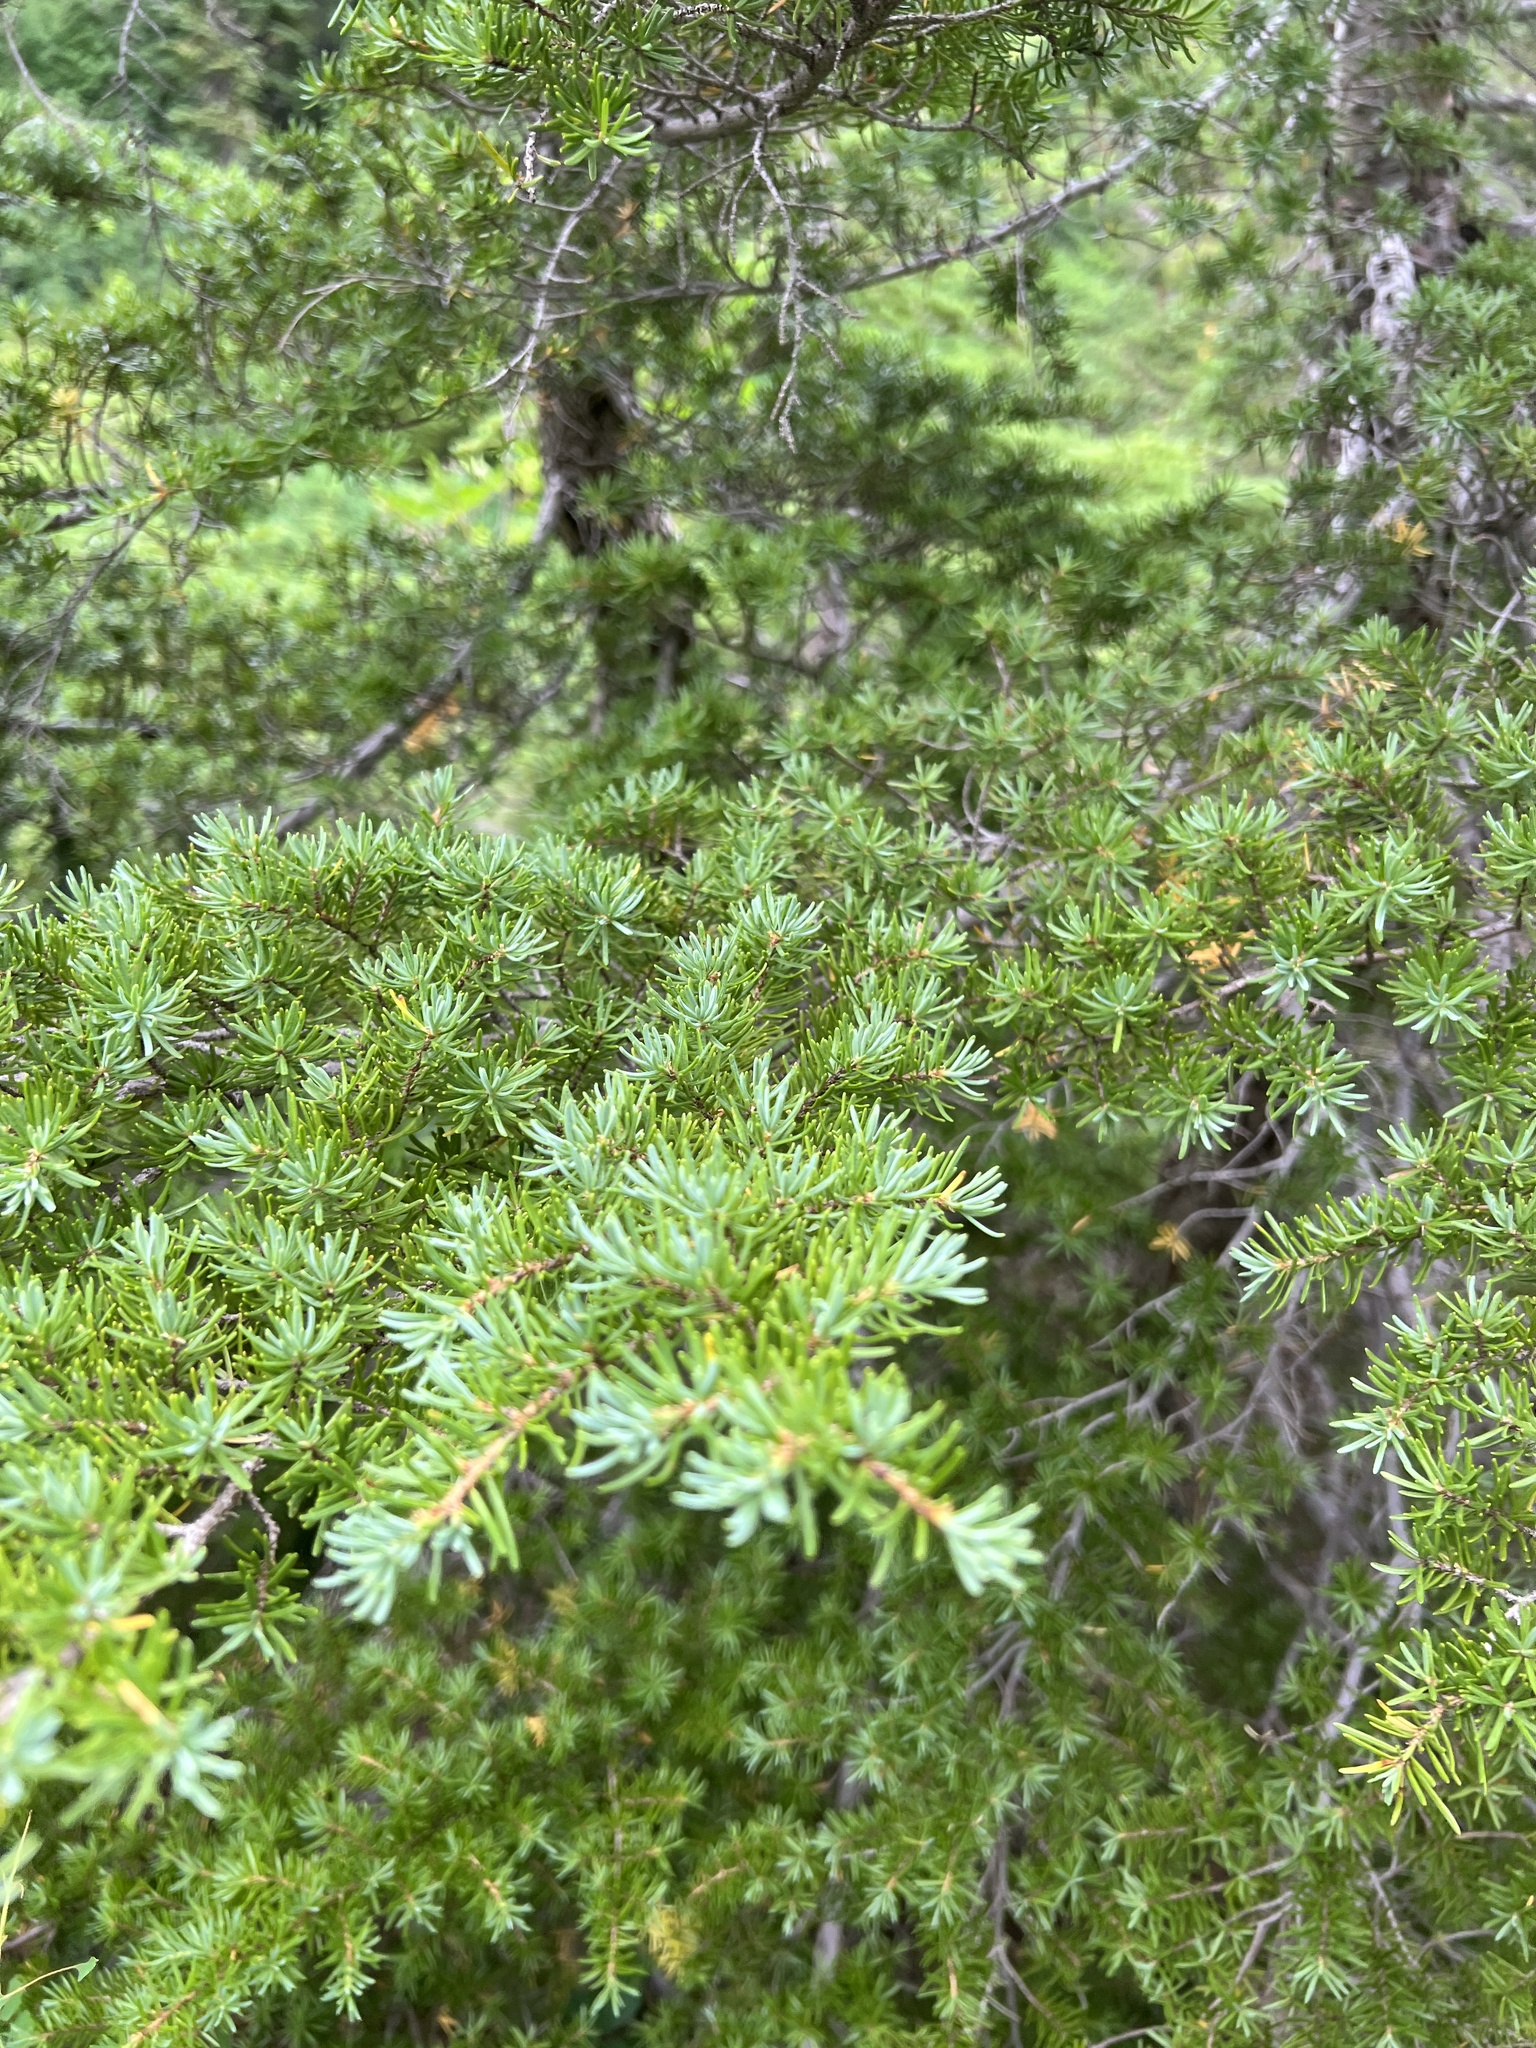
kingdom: Plantae
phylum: Tracheophyta
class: Pinopsida
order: Pinales
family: Pinaceae
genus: Tsuga
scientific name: Tsuga mertensiana
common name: Mountain hemlock
